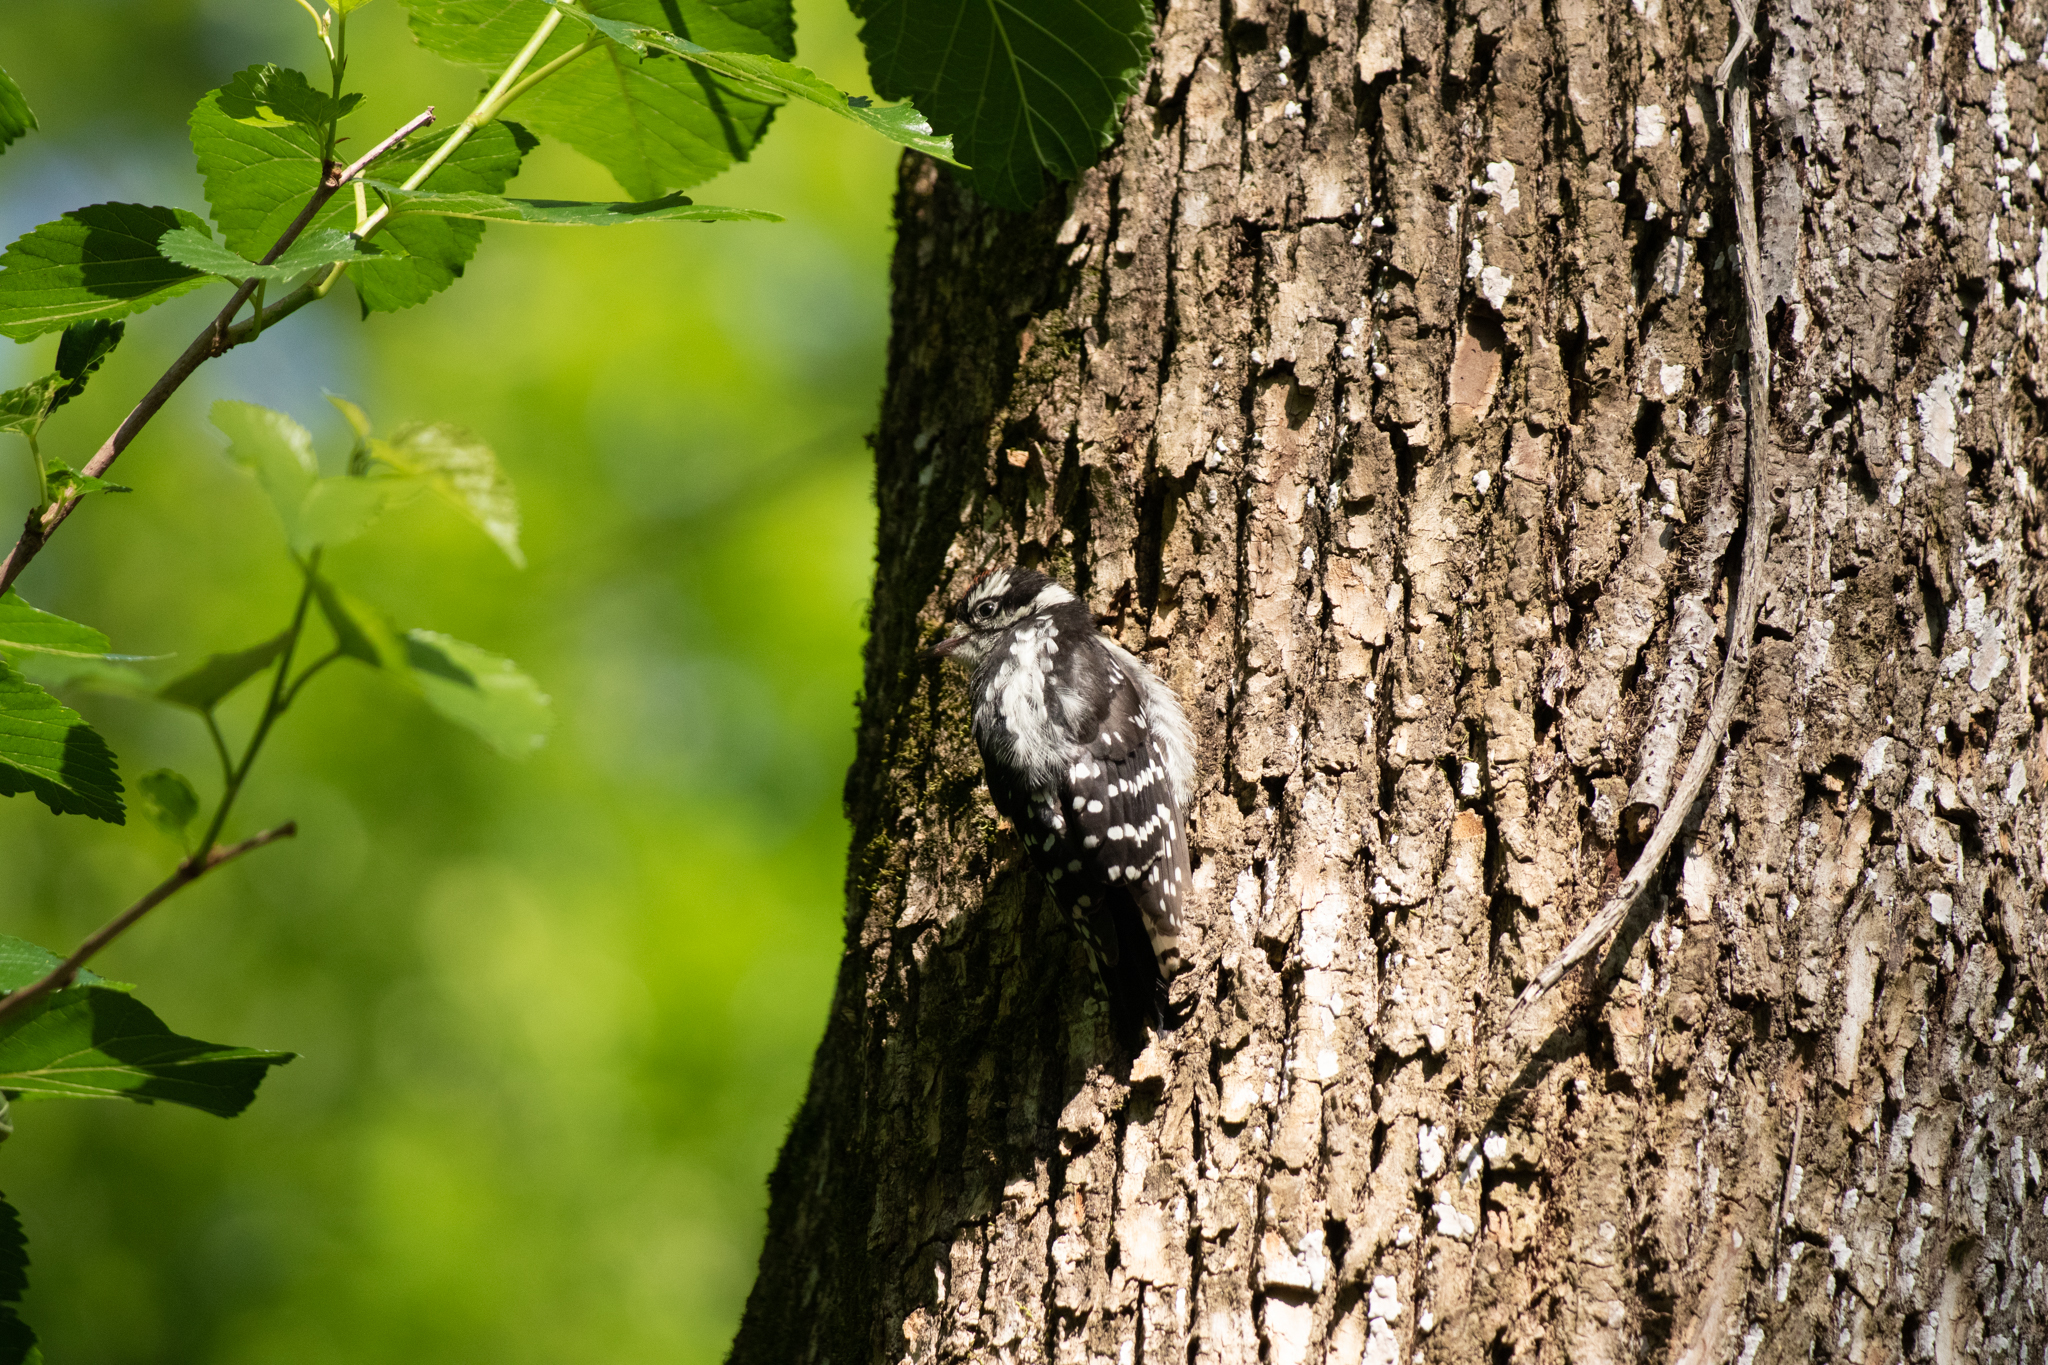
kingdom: Animalia
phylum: Chordata
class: Aves
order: Piciformes
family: Picidae
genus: Dryobates
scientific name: Dryobates pubescens
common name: Downy woodpecker
